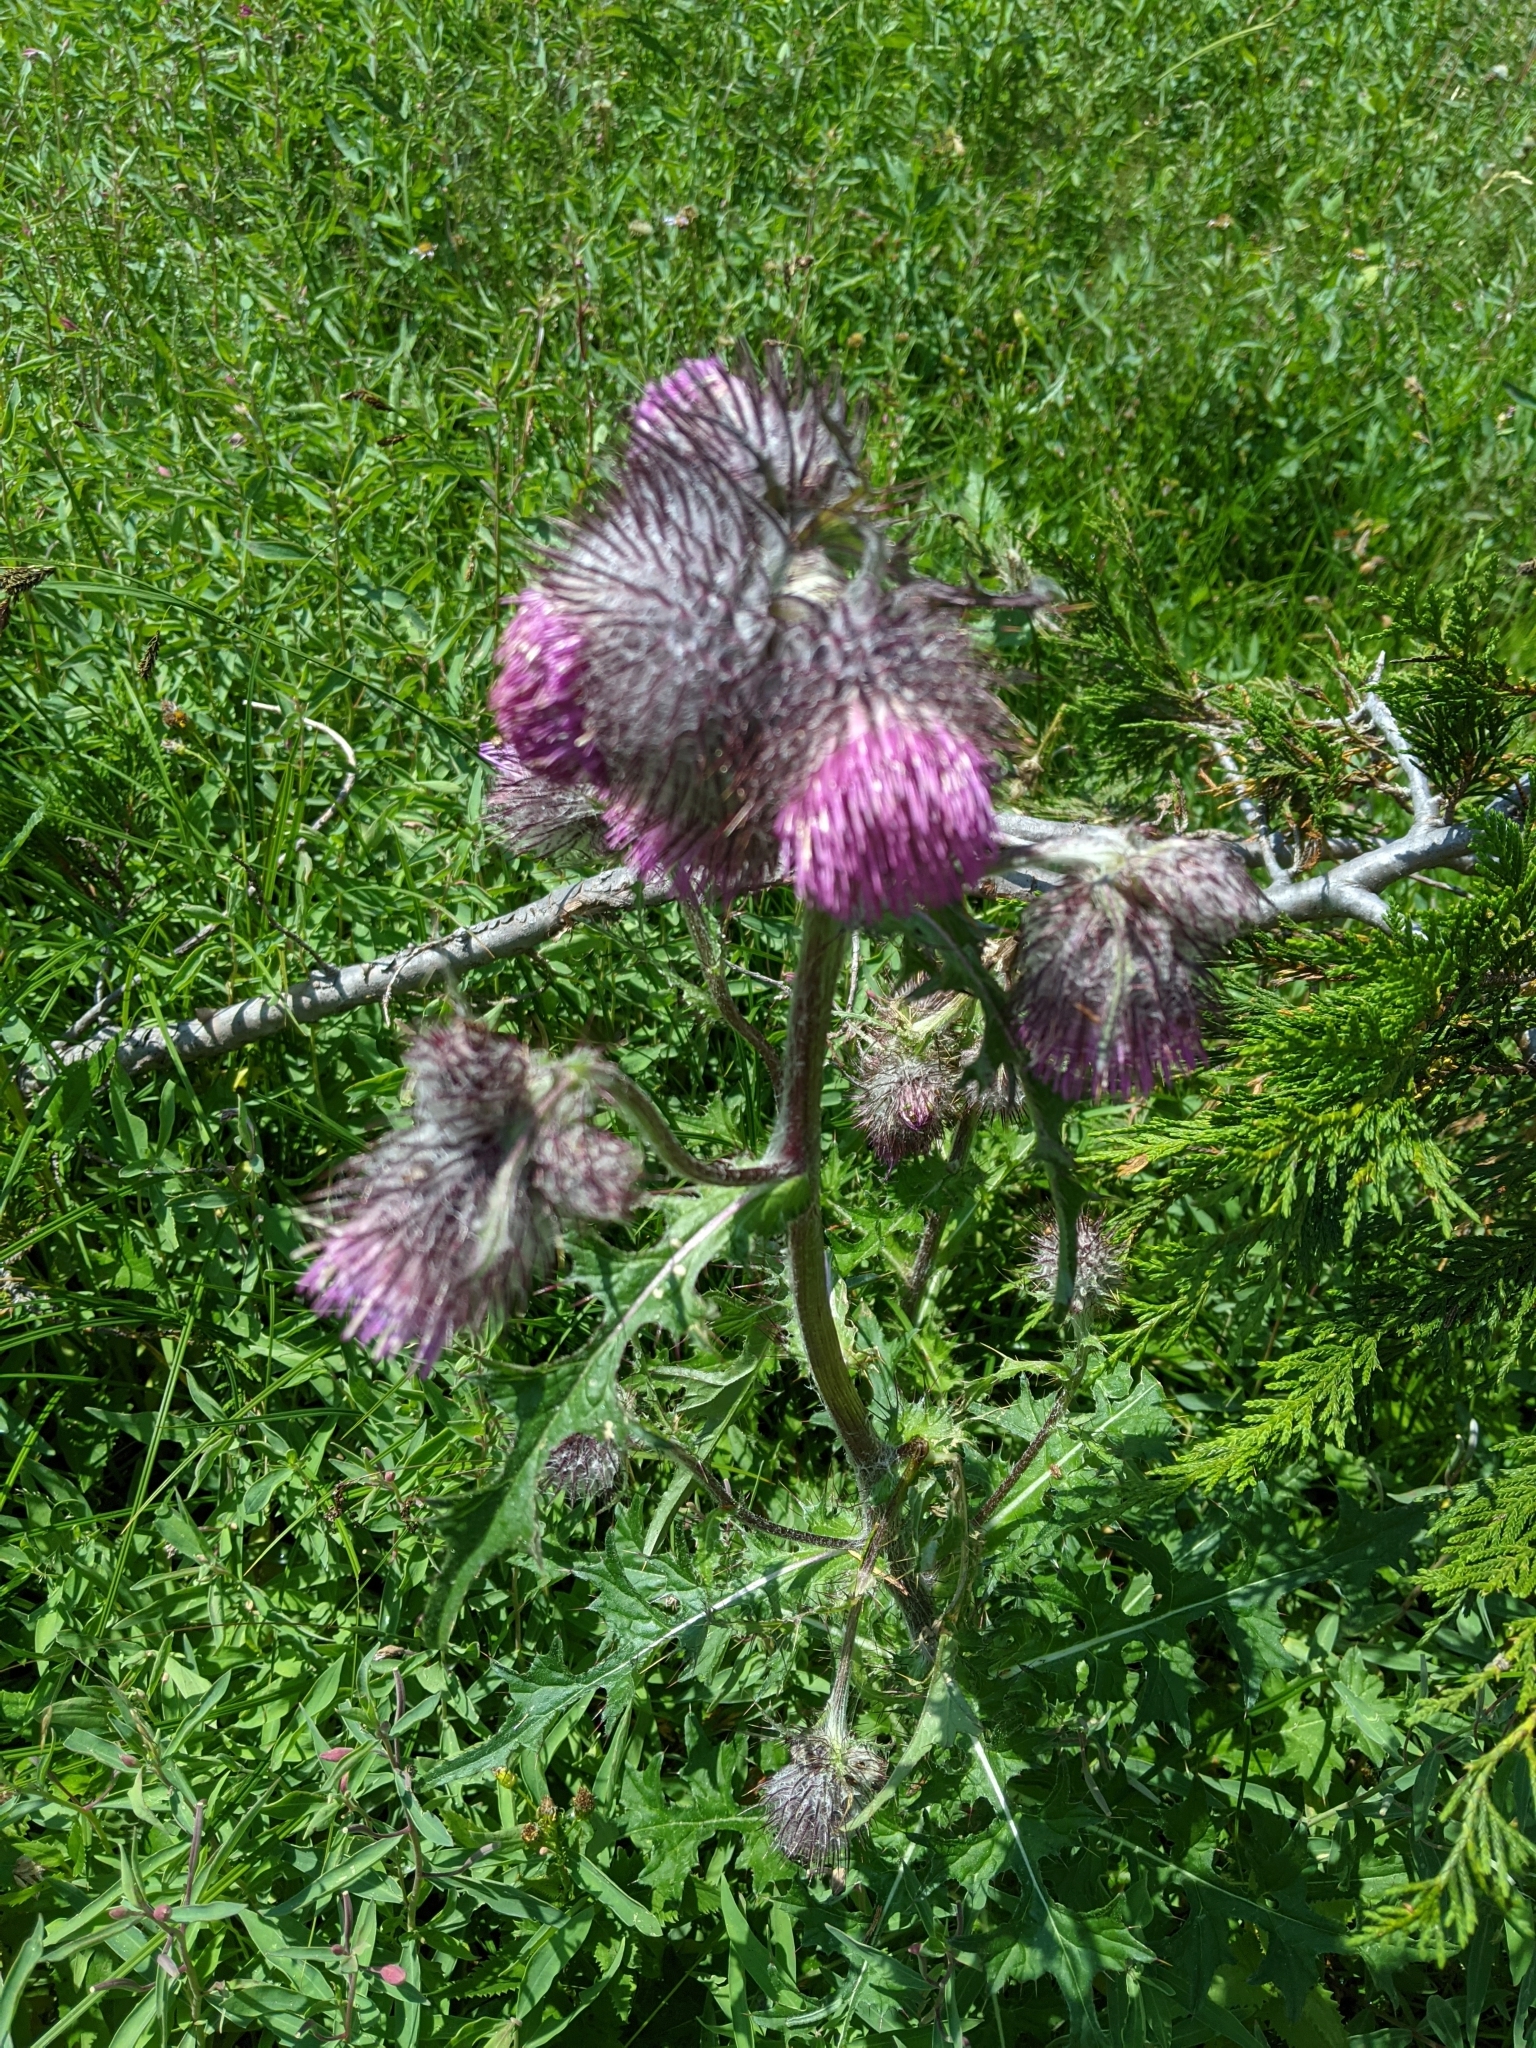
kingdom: Plantae
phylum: Tracheophyta
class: Magnoliopsida
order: Asterales
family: Asteraceae
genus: Cirsium
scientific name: Cirsium edule
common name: Indian thistle
